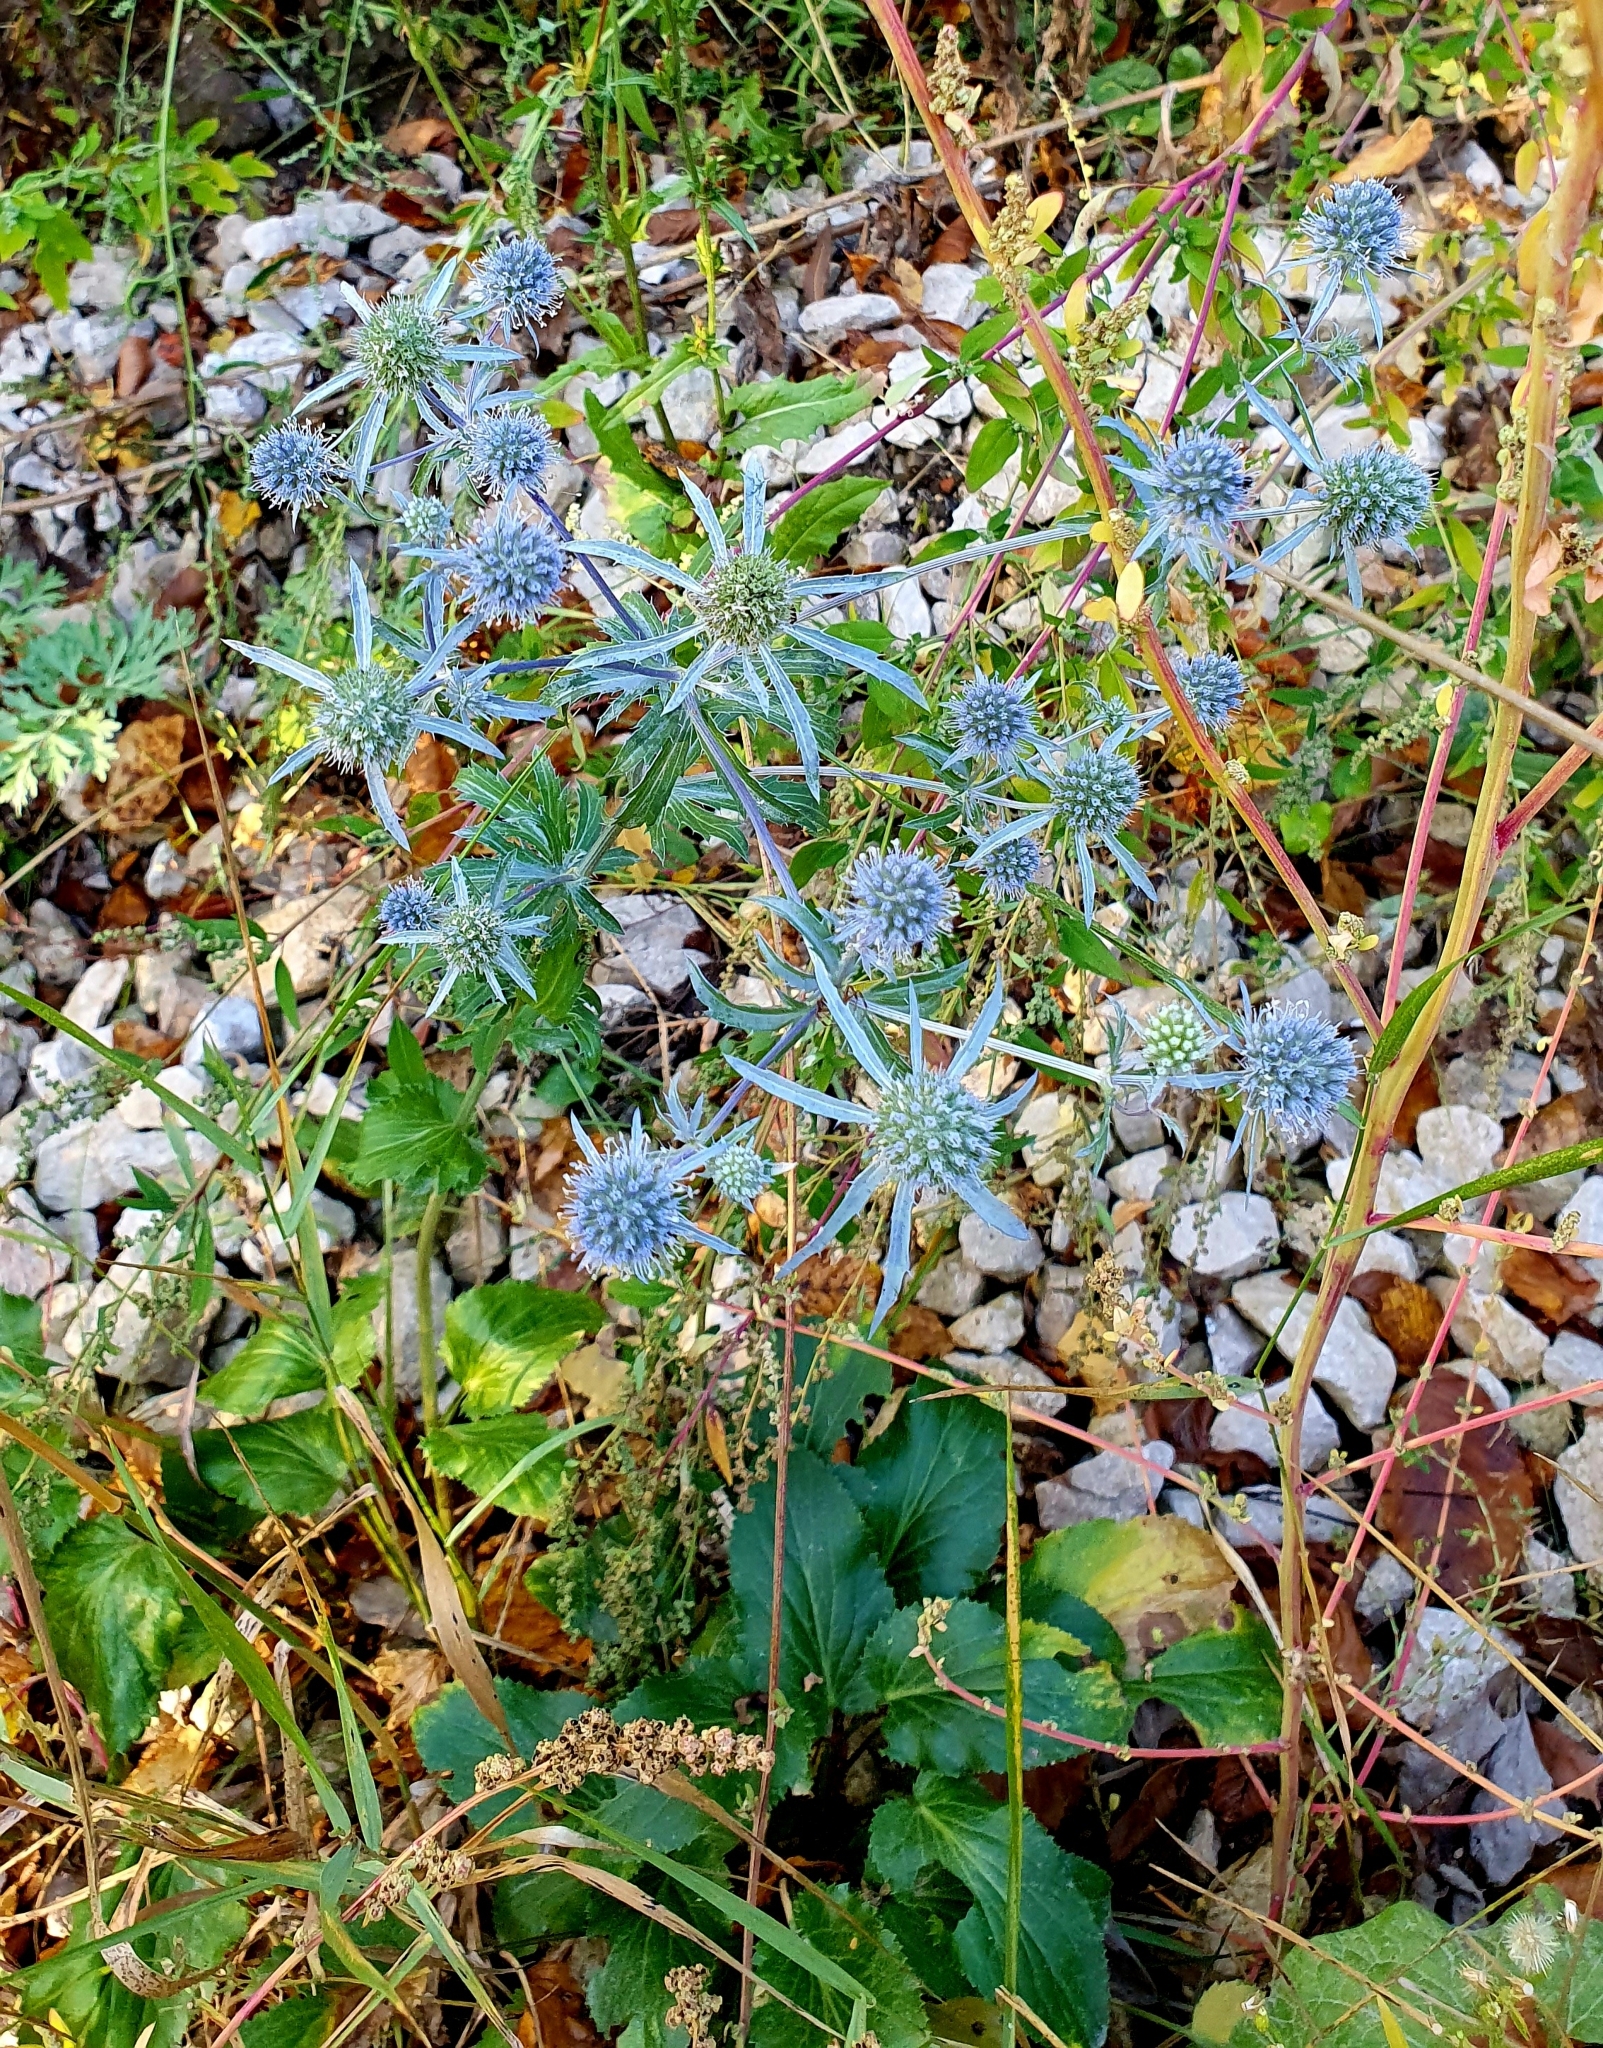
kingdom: Plantae
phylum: Tracheophyta
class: Magnoliopsida
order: Apiales
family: Apiaceae
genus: Eryngium
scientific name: Eryngium planum
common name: Blue eryngo
